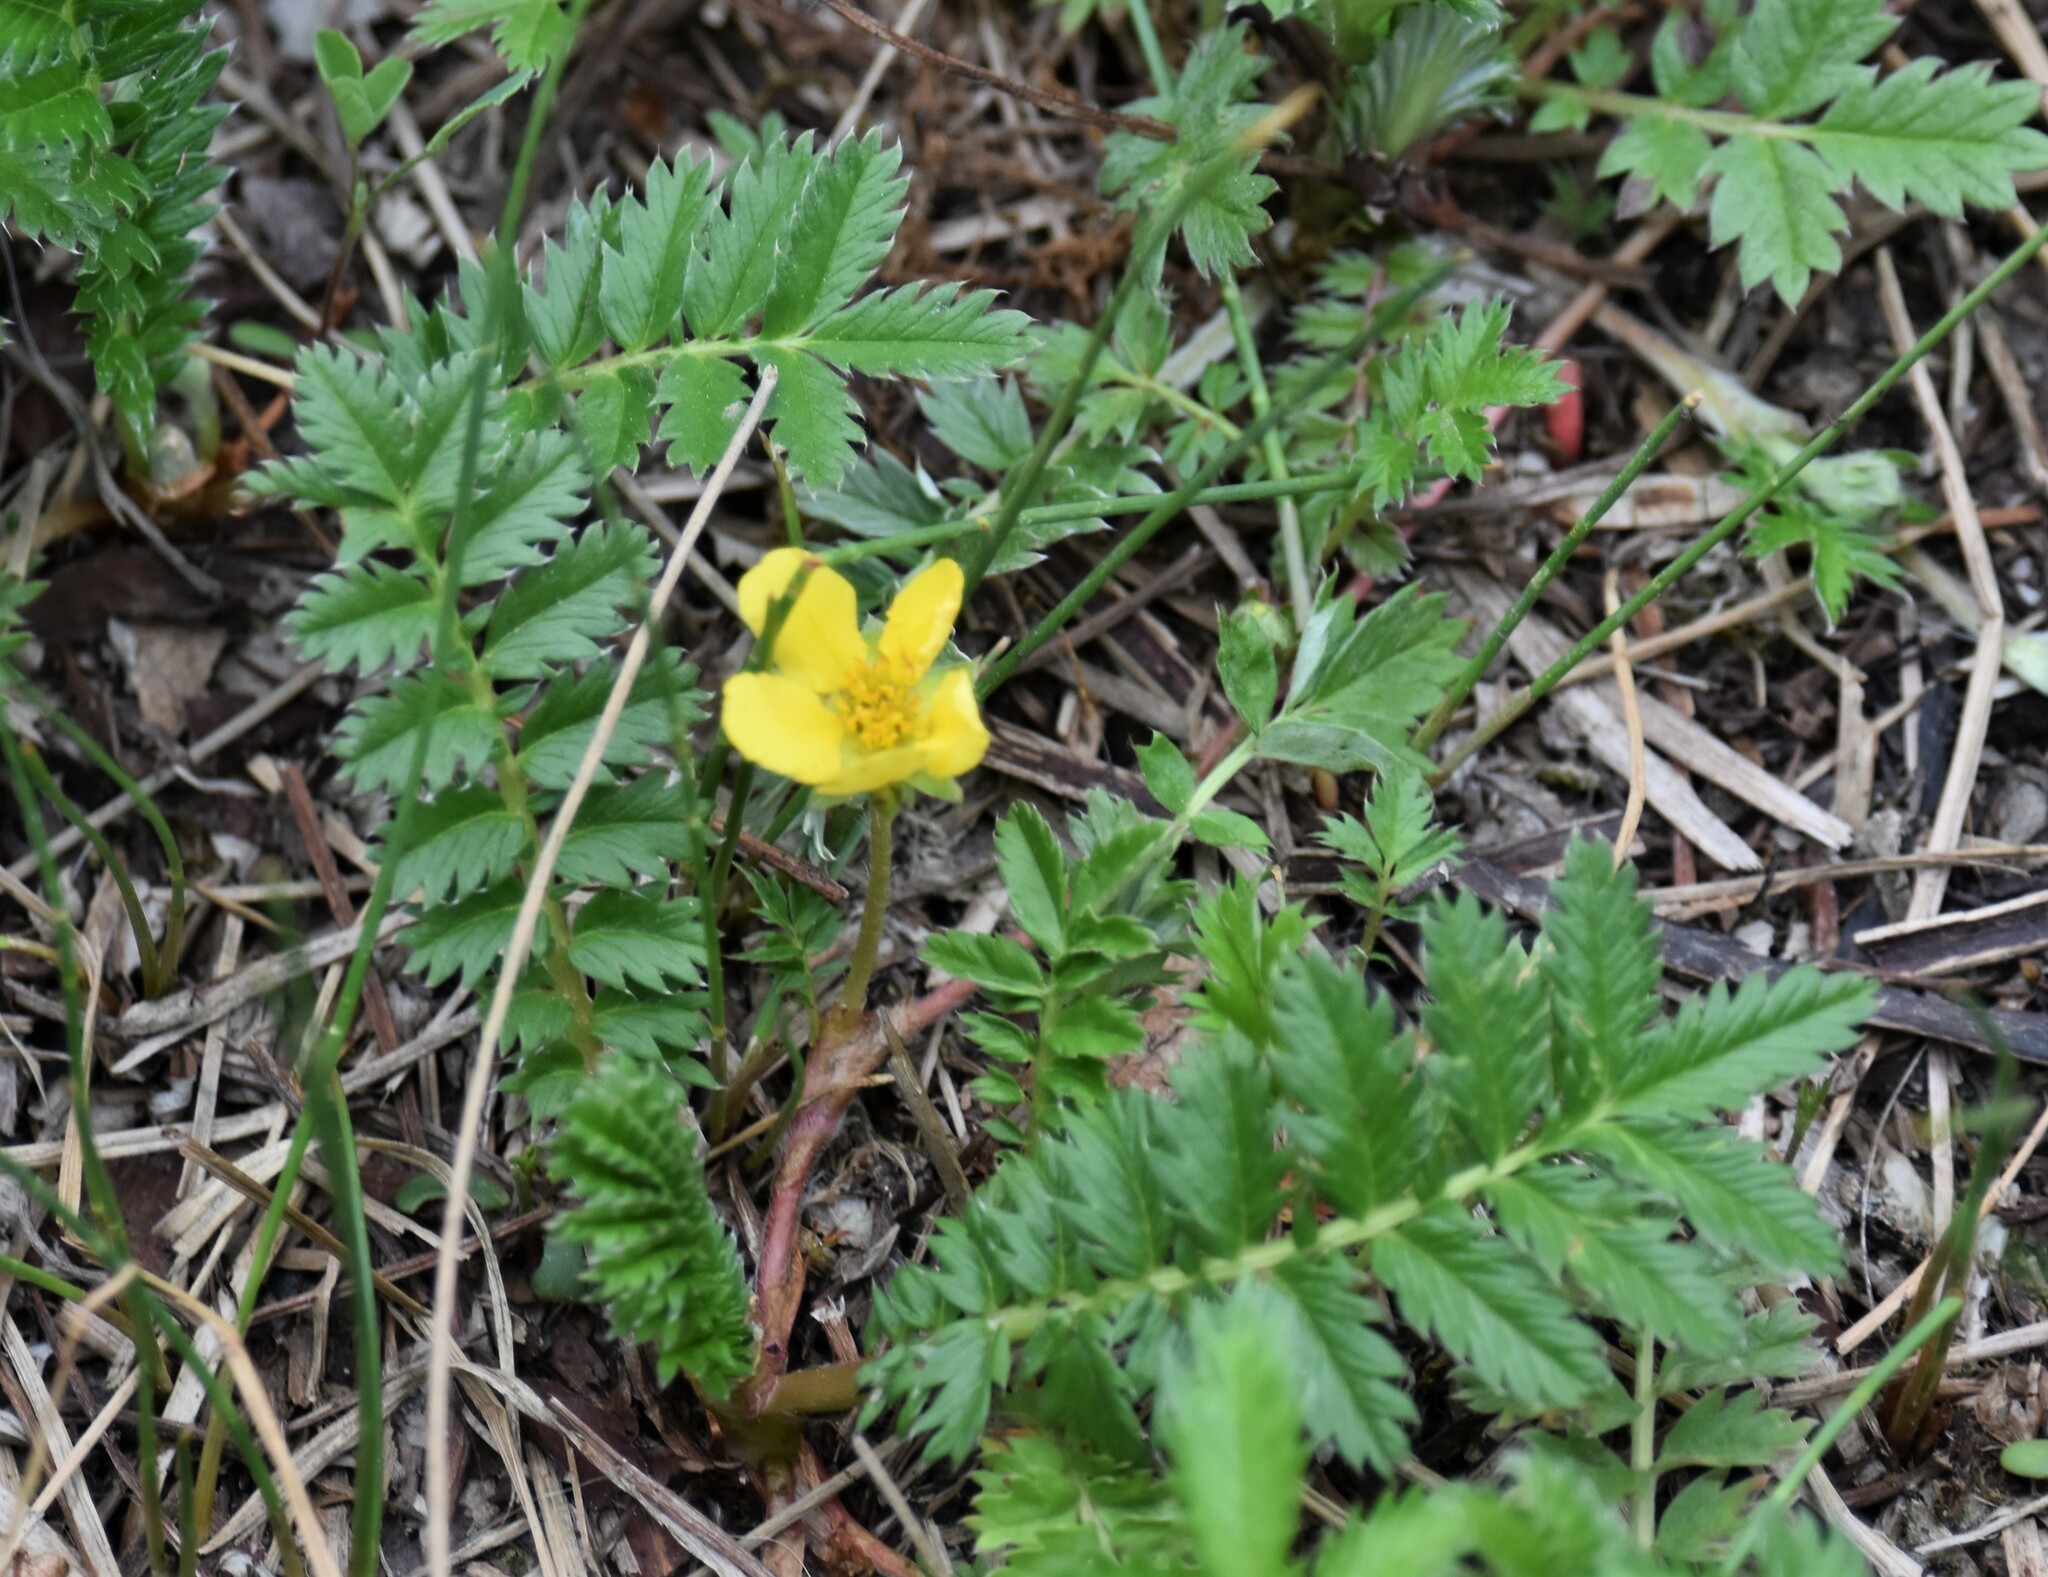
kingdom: Plantae
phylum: Tracheophyta
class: Magnoliopsida
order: Rosales
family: Rosaceae
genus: Argentina
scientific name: Argentina anserina
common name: Common silverweed
